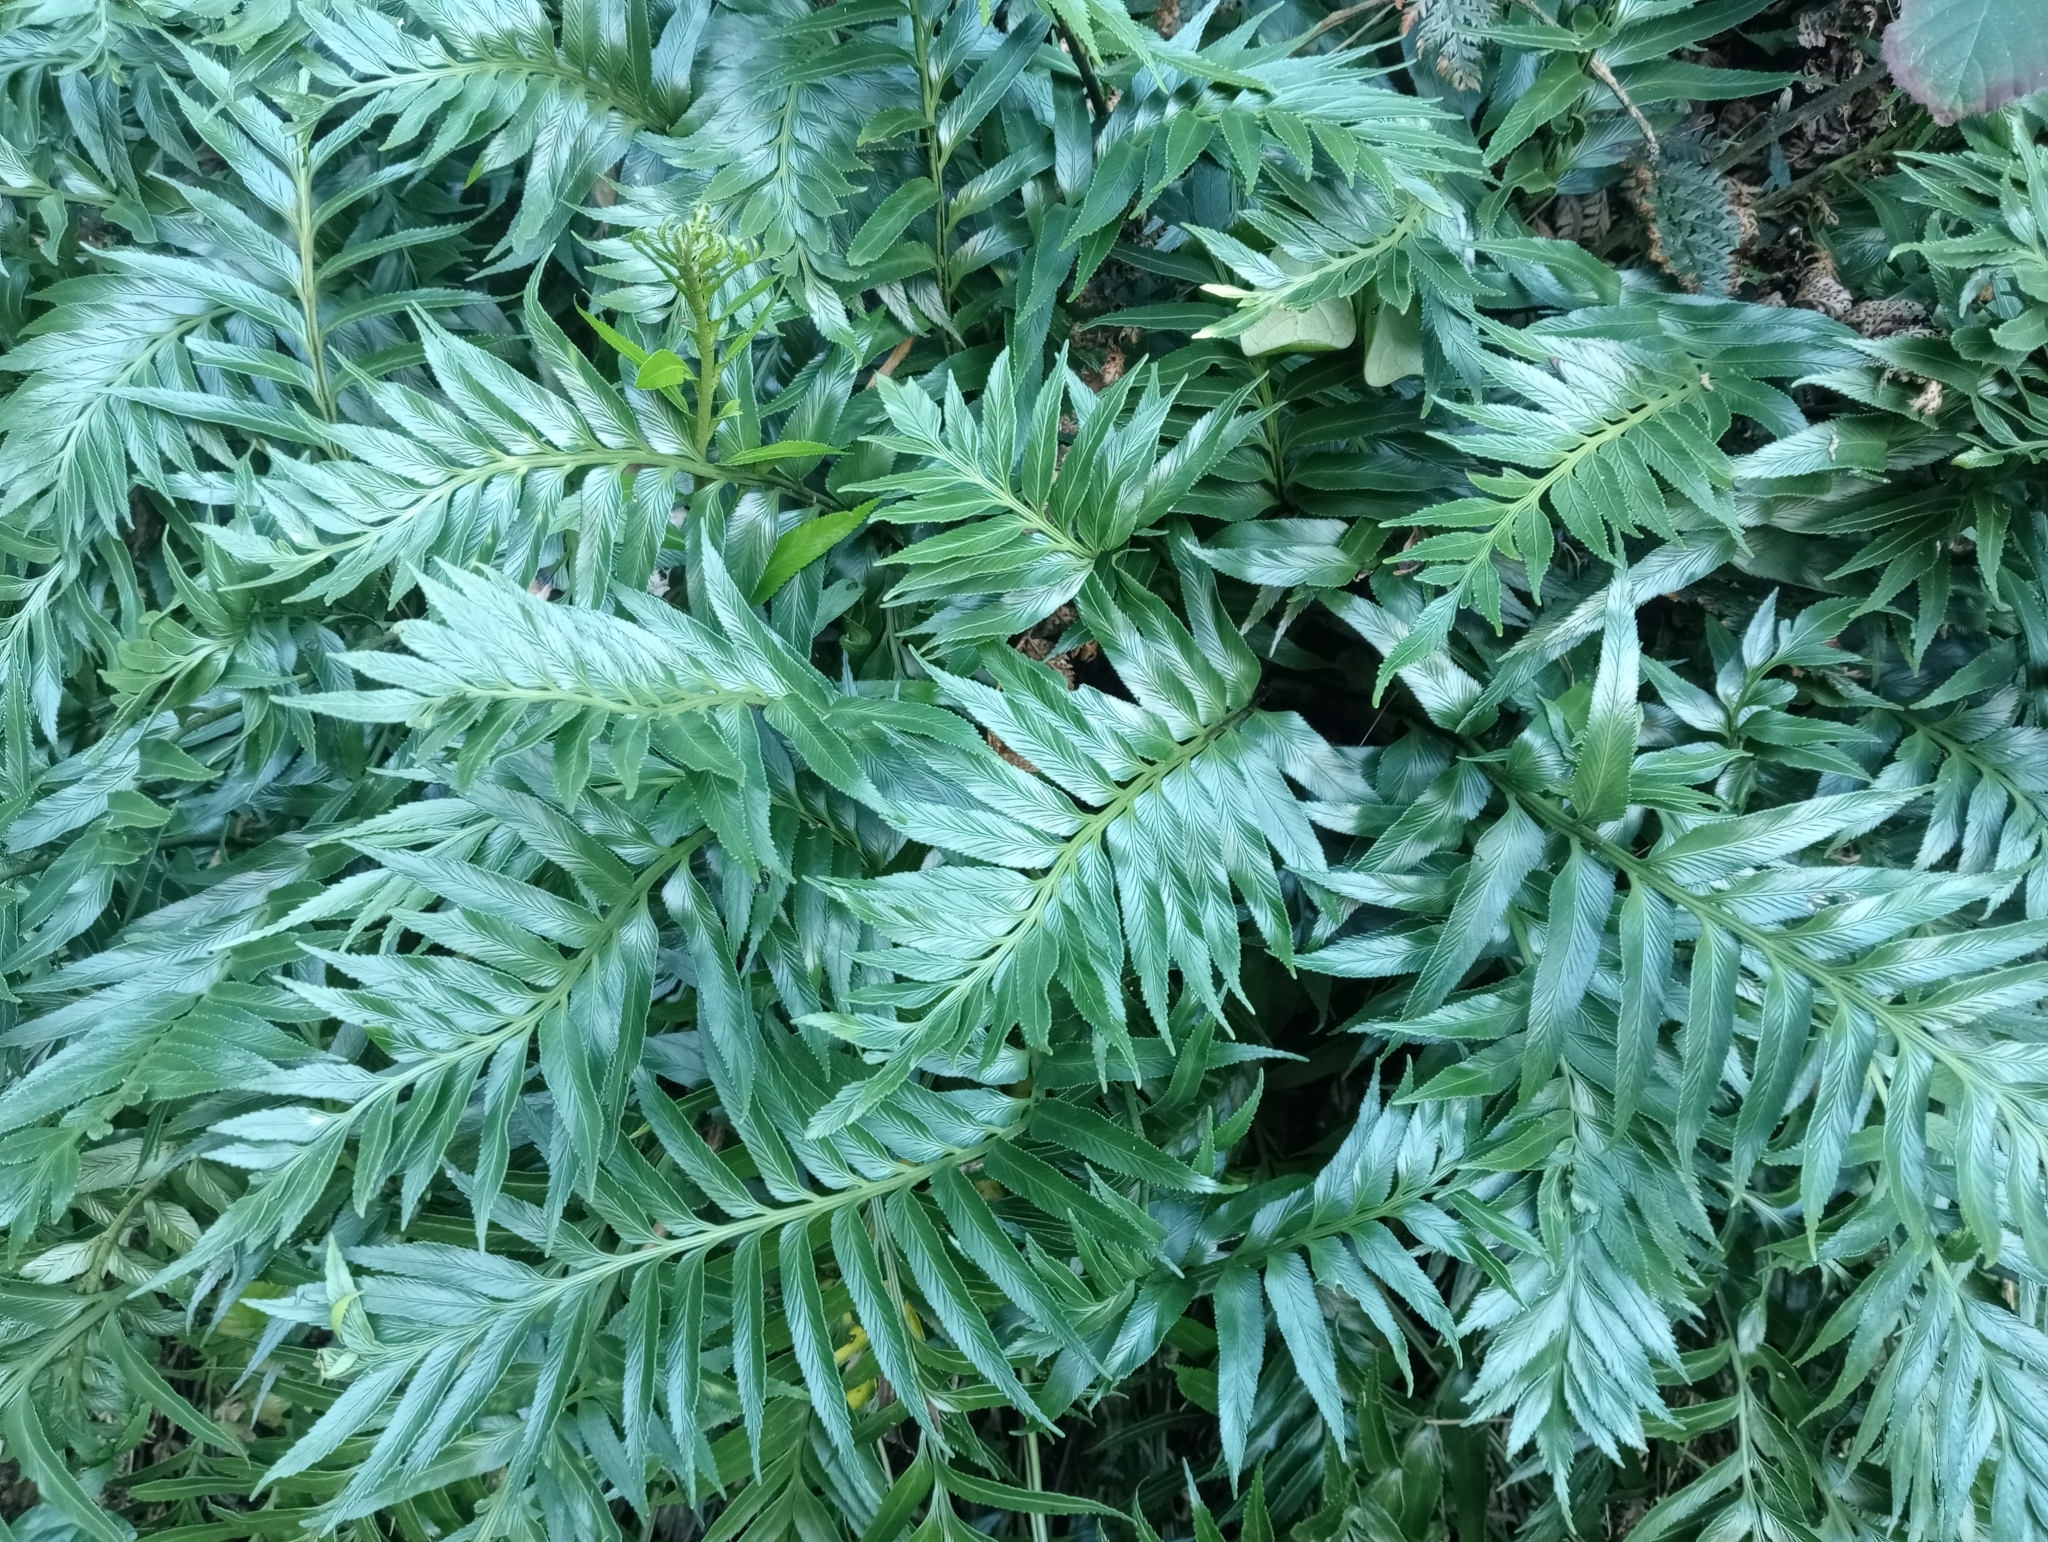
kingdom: Plantae
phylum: Tracheophyta
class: Polypodiopsida
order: Polypodiales
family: Aspleniaceae
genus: Asplenium
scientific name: Asplenium obtusatum
